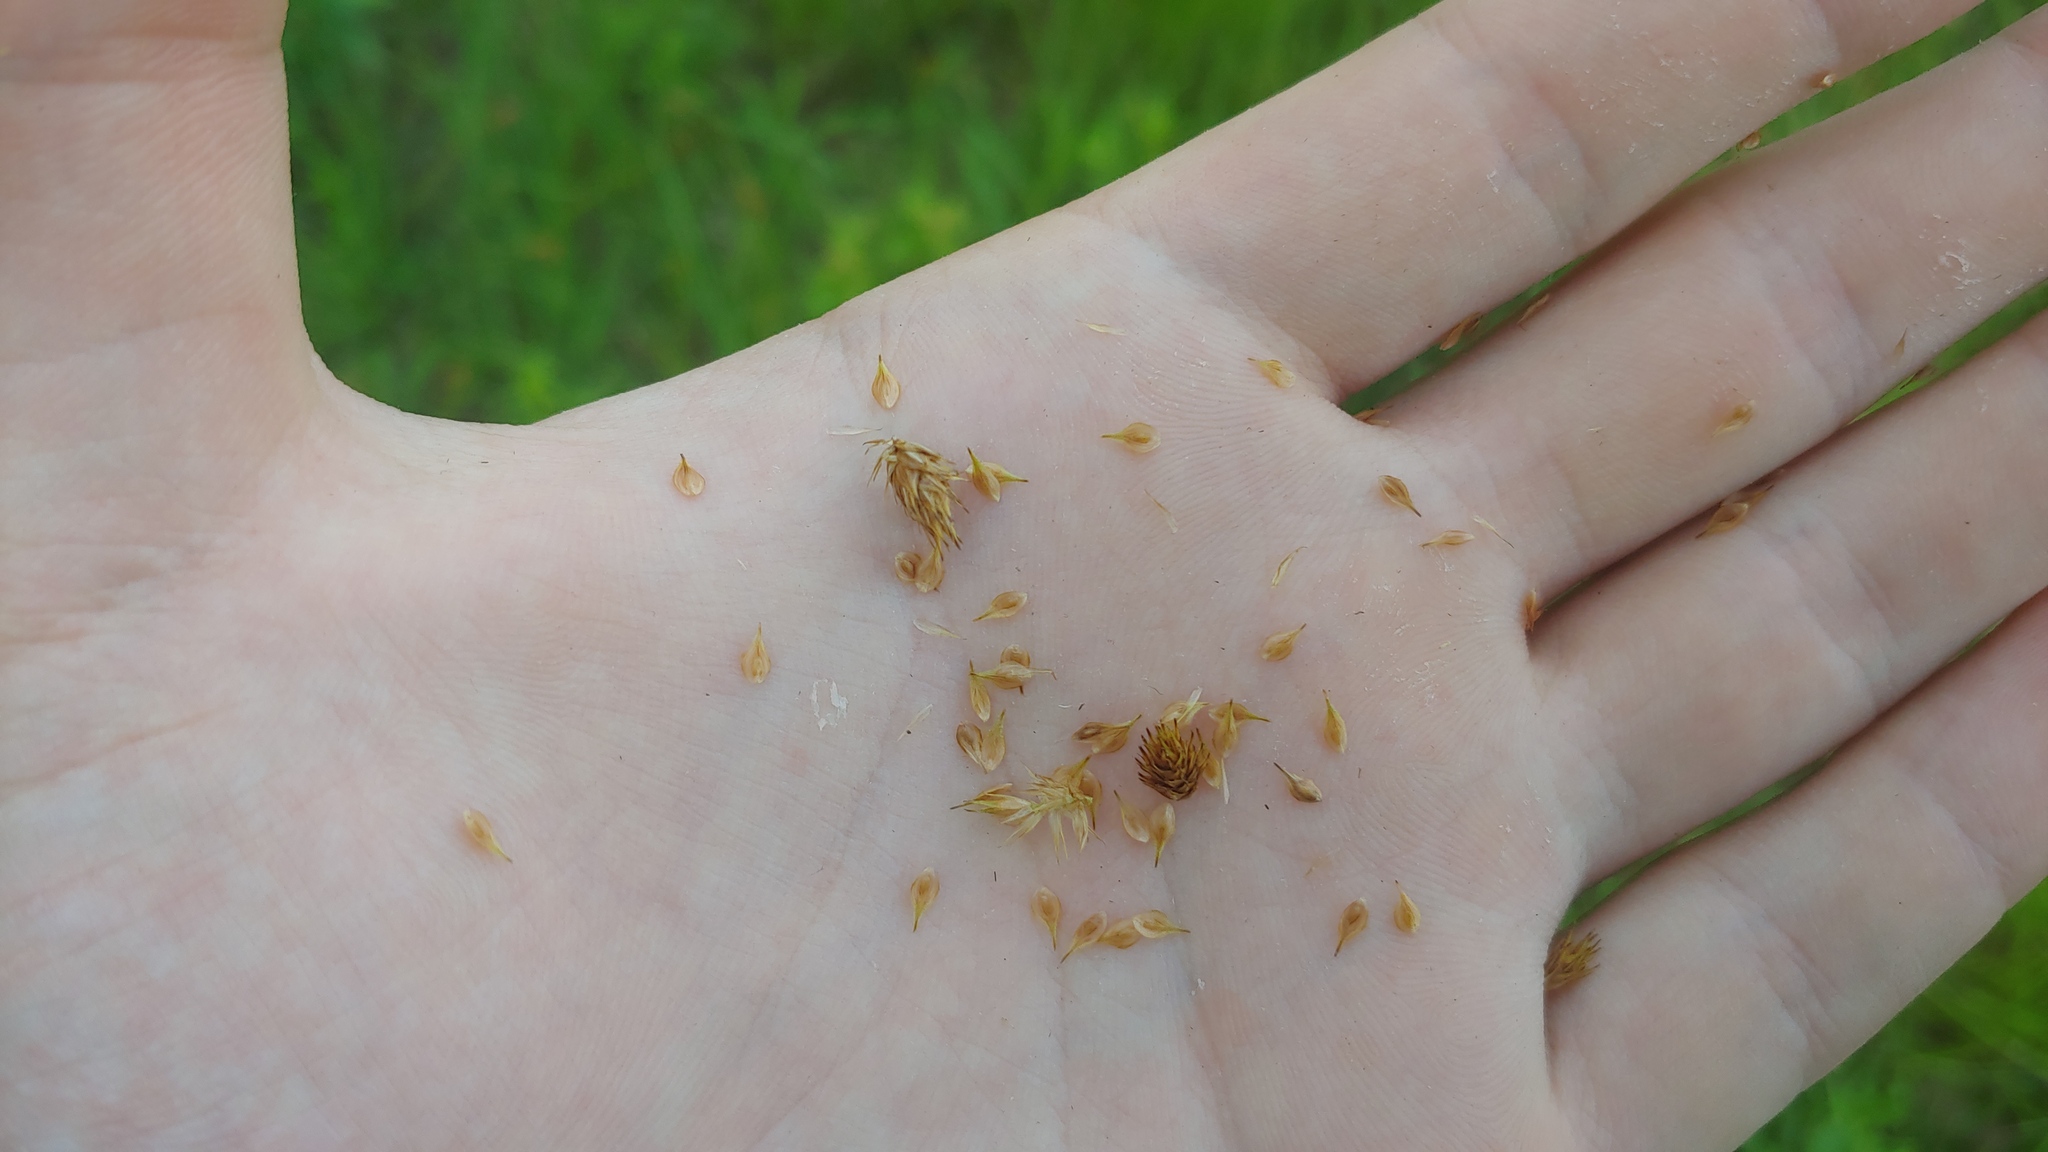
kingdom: Plantae
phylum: Tracheophyta
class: Liliopsida
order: Poales
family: Cyperaceae
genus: Carex
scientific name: Carex waponahkikensis
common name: Dawn-land sedge
